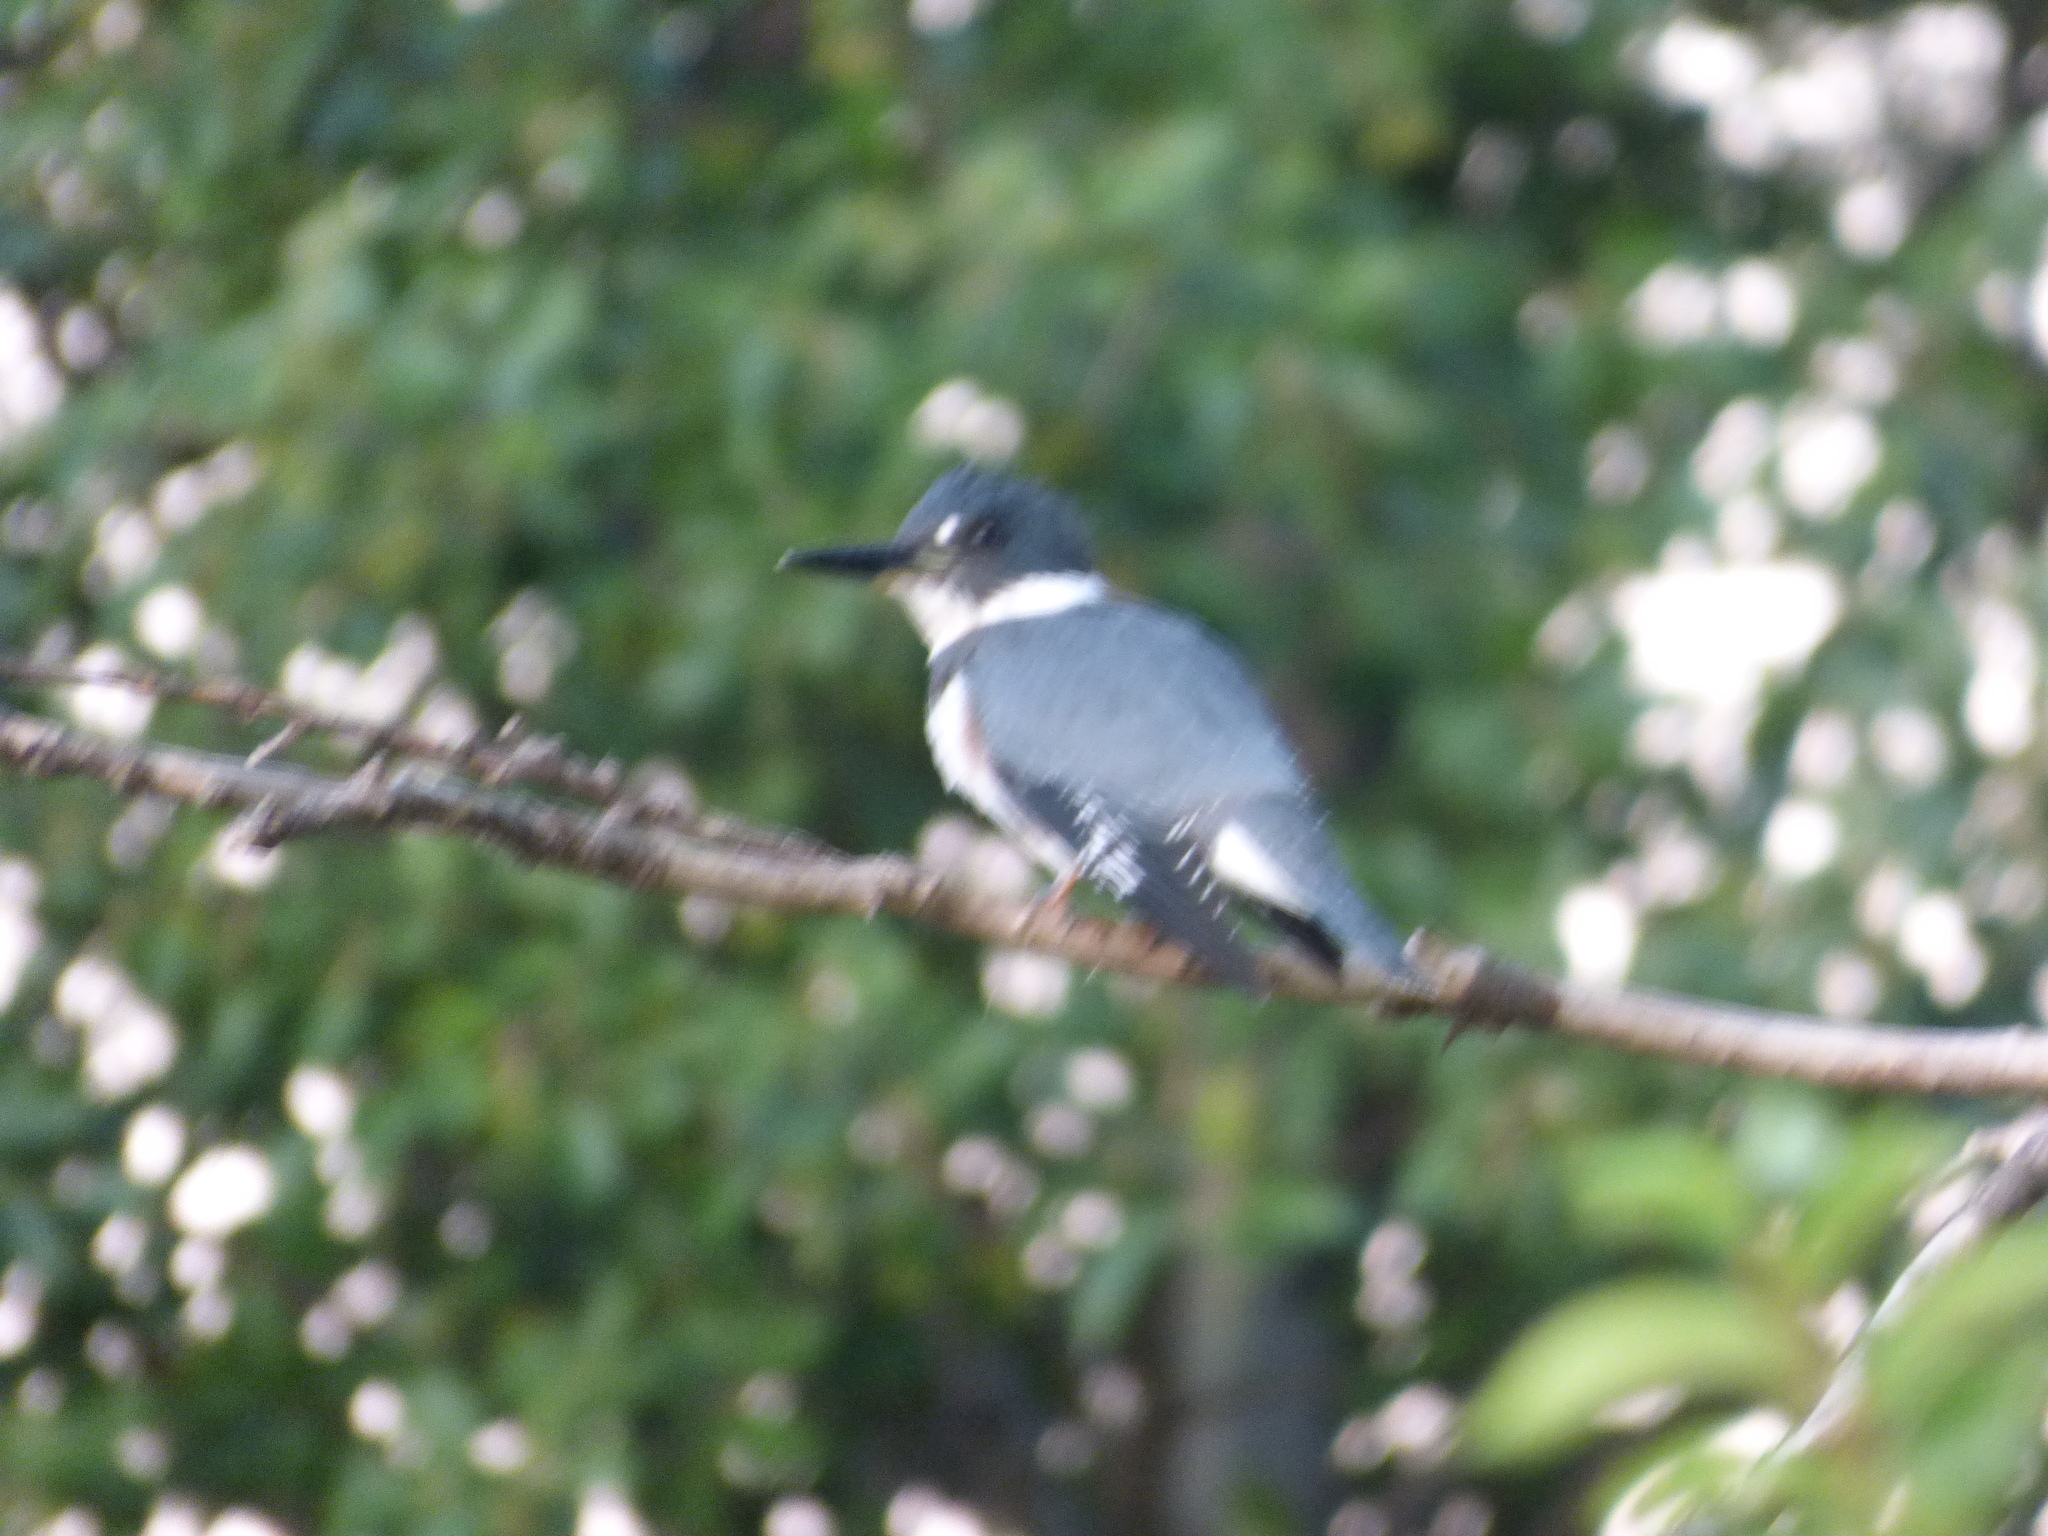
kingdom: Animalia
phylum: Chordata
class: Aves
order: Coraciiformes
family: Alcedinidae
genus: Megaceryle
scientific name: Megaceryle alcyon
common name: Belted kingfisher
